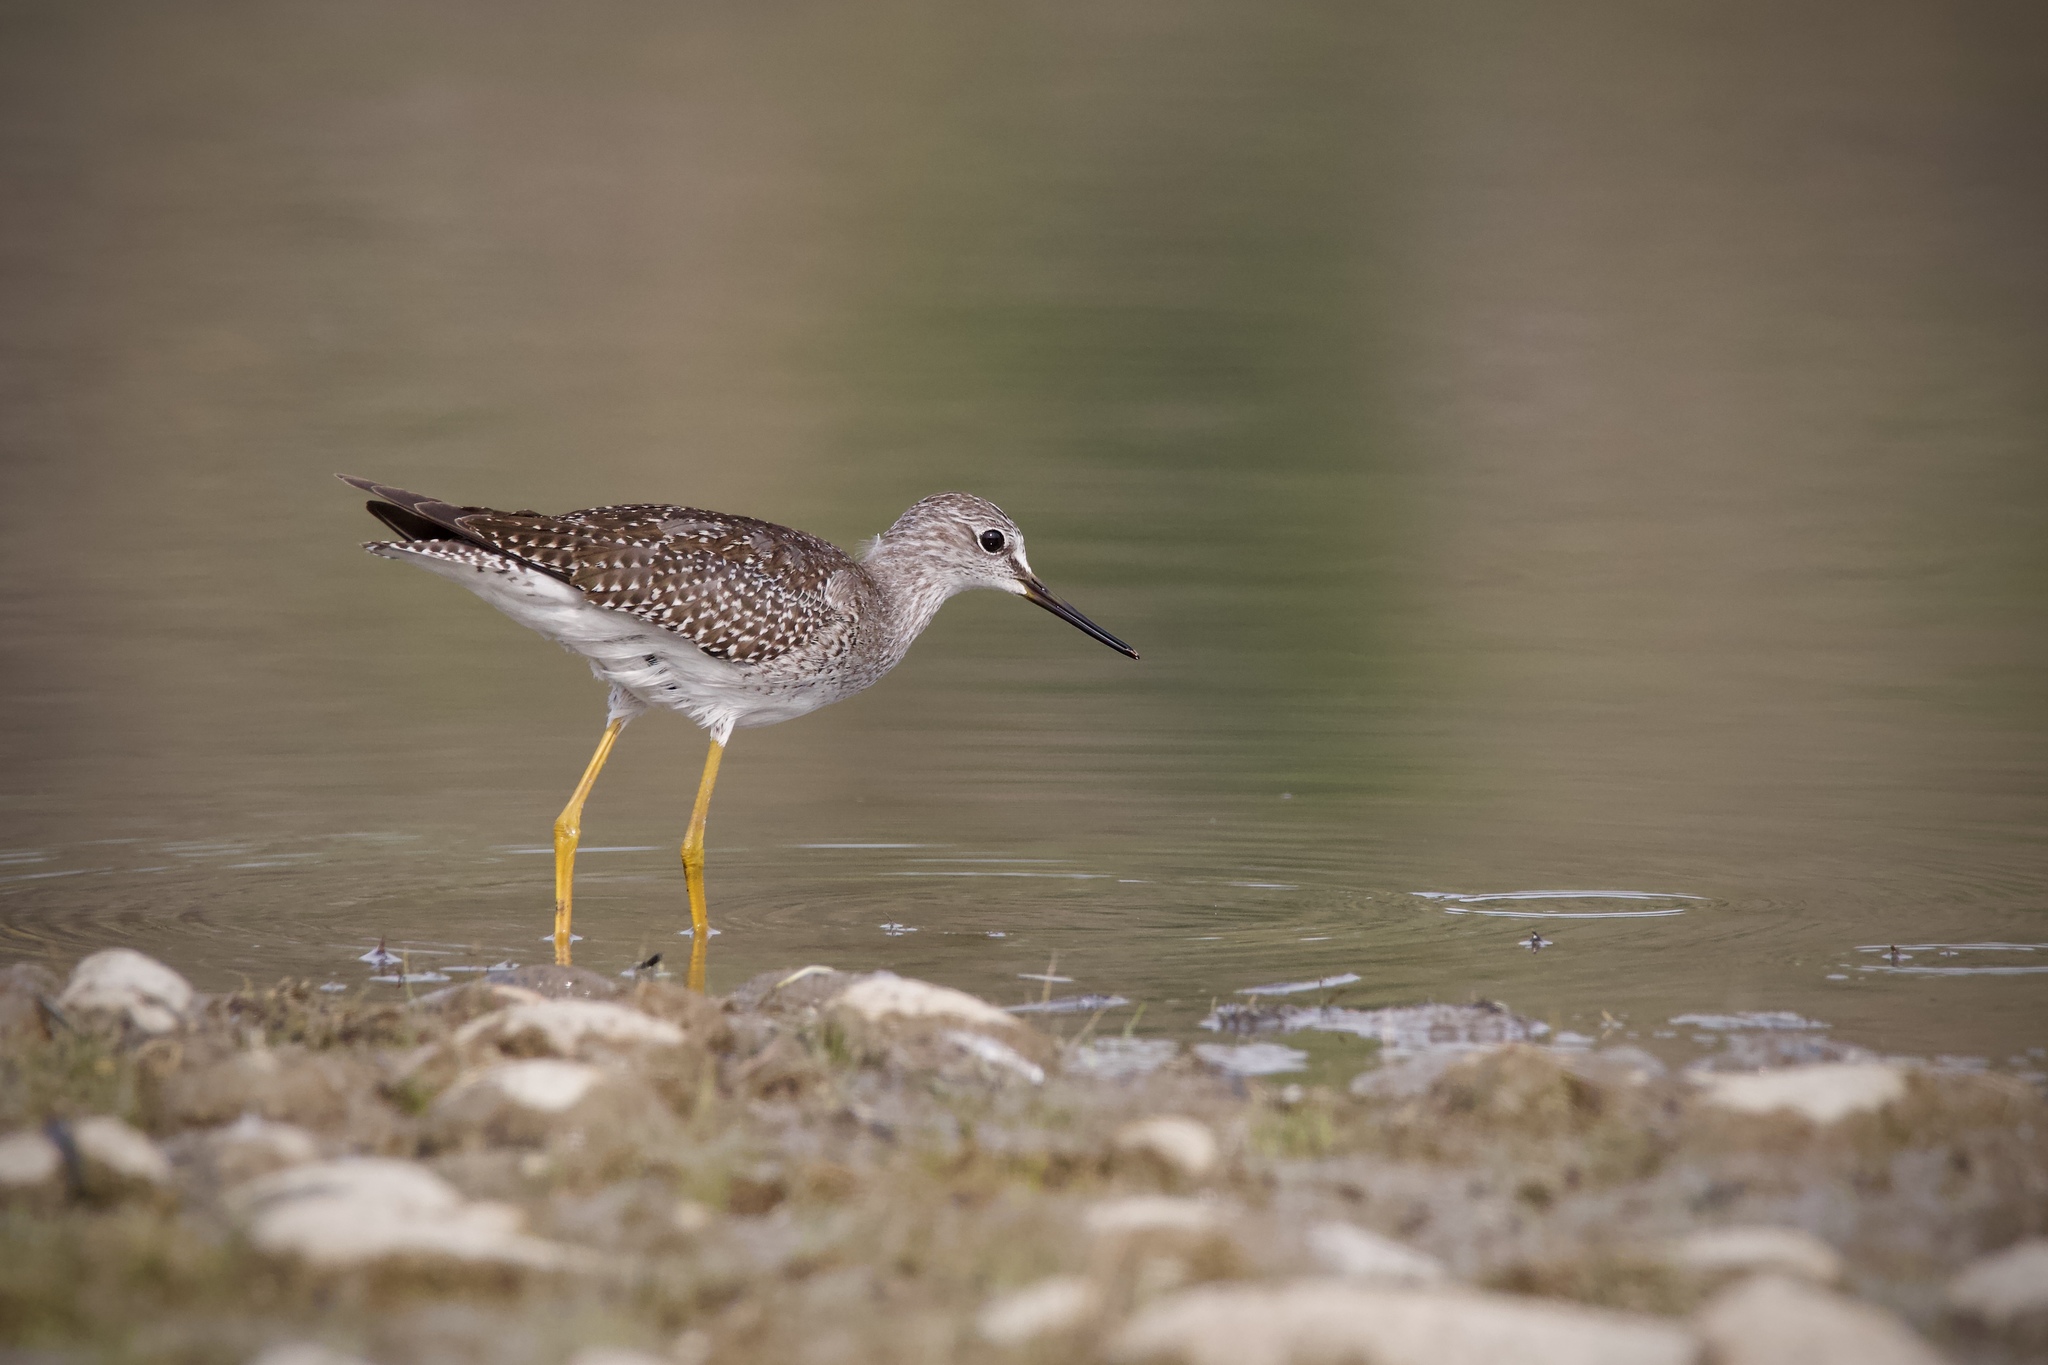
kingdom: Animalia
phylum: Chordata
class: Aves
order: Charadriiformes
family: Scolopacidae
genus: Tringa
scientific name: Tringa flavipes
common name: Lesser yellowlegs
